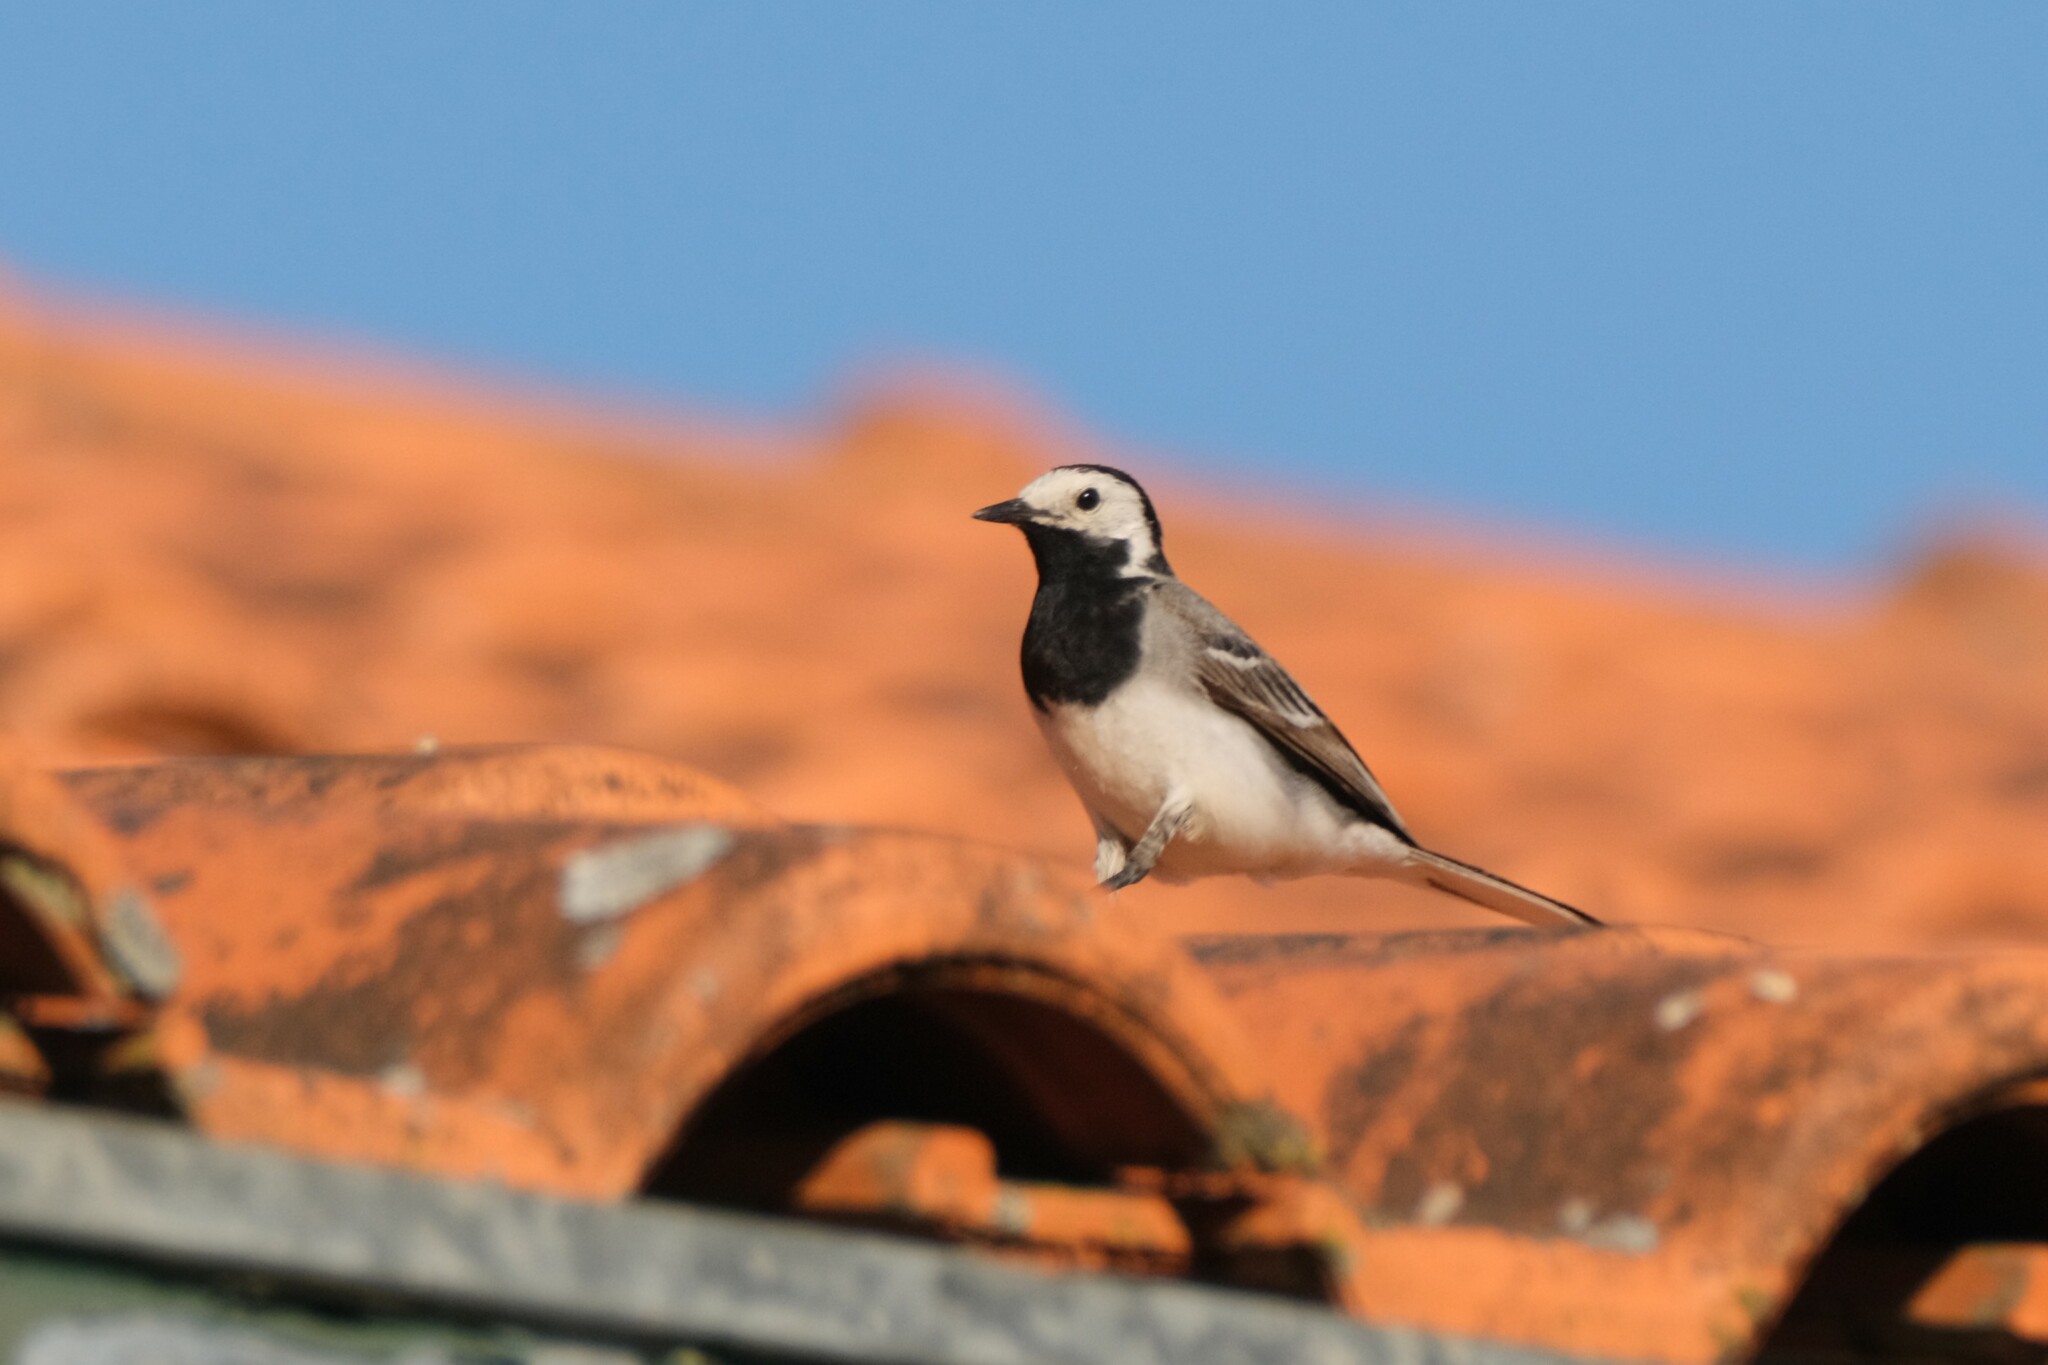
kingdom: Animalia
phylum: Chordata
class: Aves
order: Passeriformes
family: Motacillidae
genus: Motacilla
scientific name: Motacilla alba
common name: White wagtail
